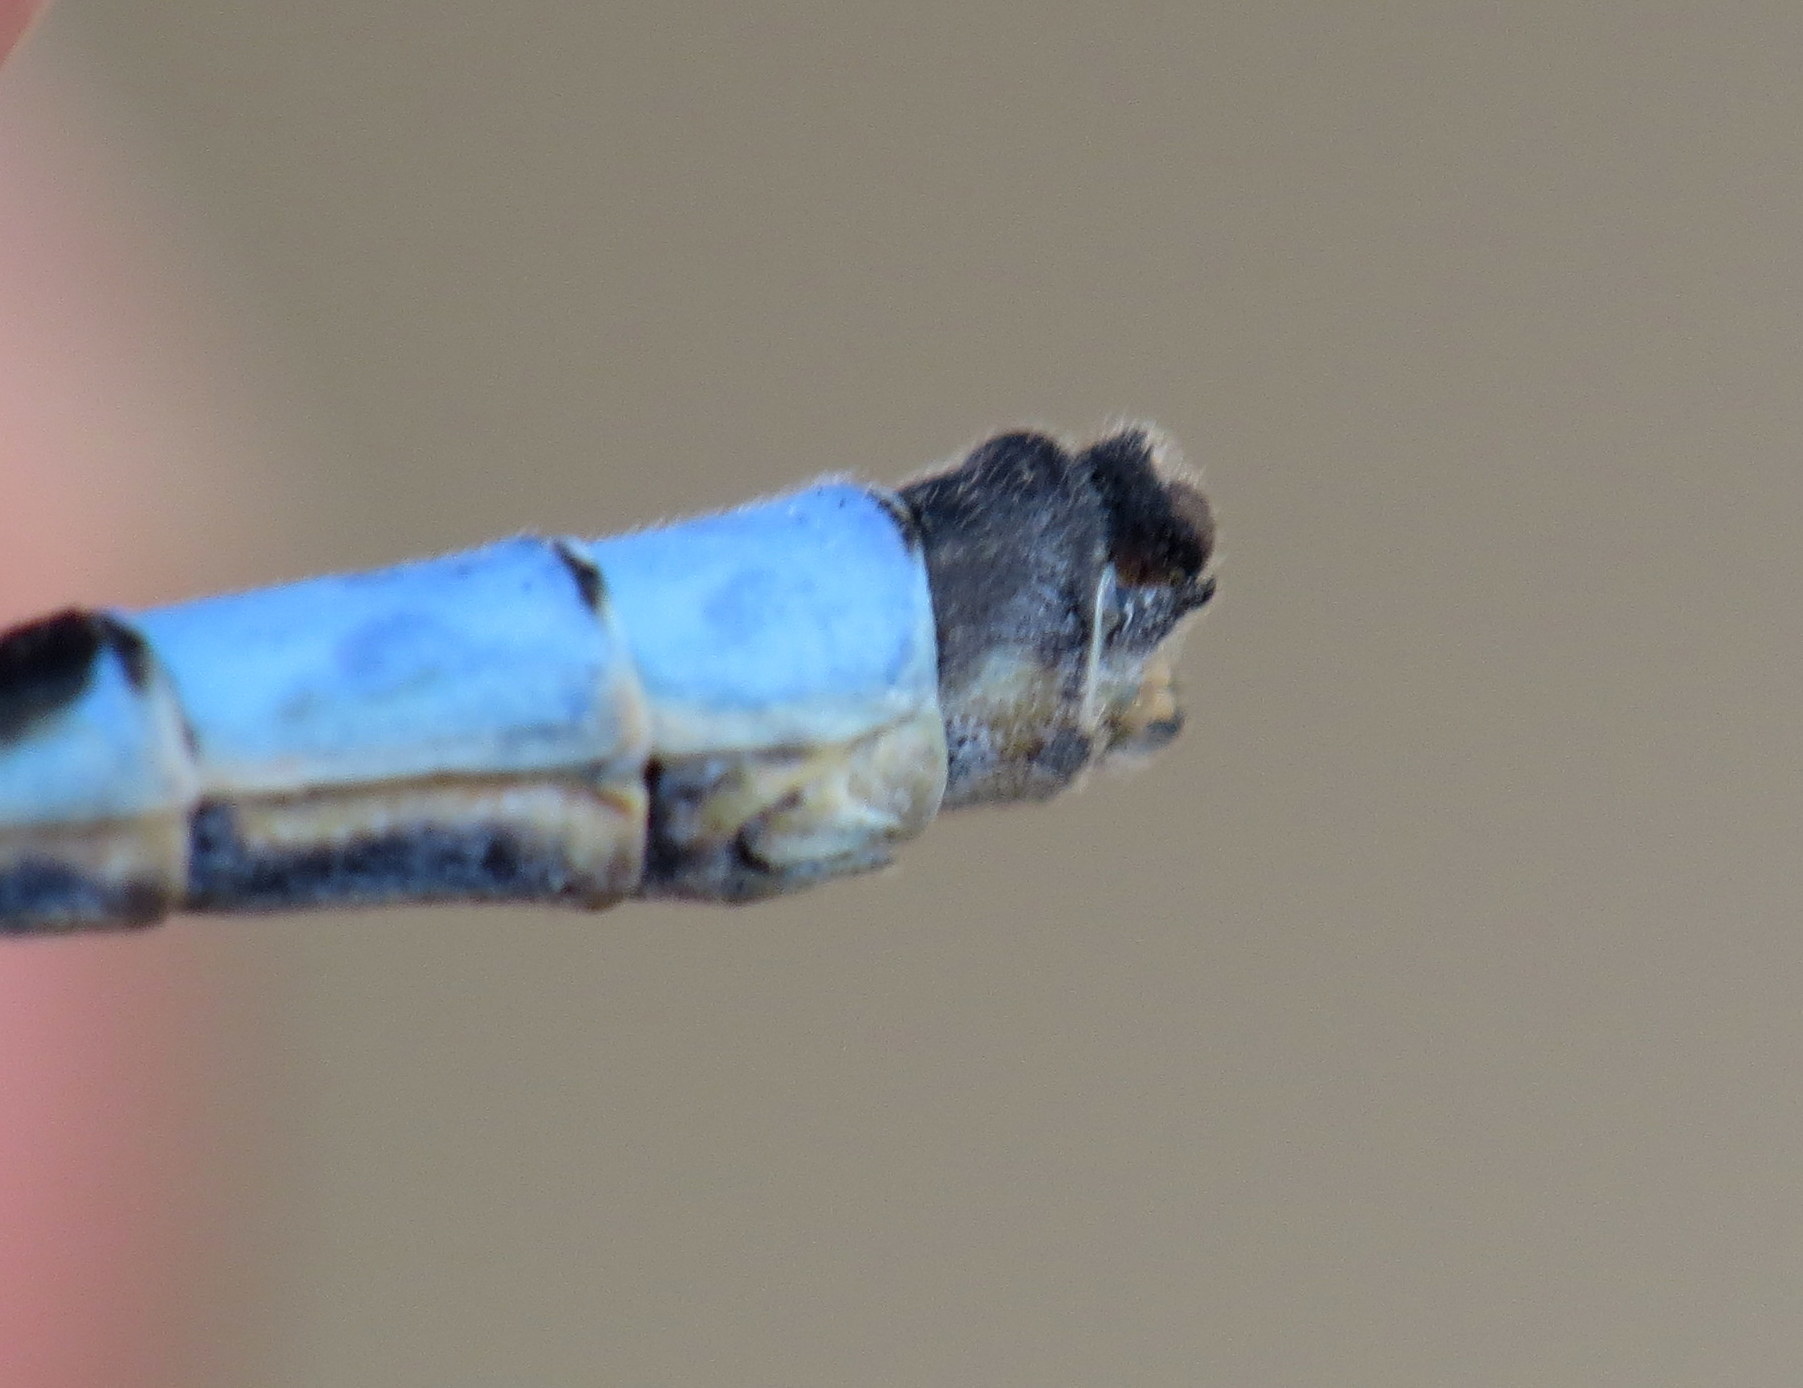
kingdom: Animalia
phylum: Arthropoda
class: Insecta
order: Odonata
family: Coenagrionidae
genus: Enallagma
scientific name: Enallagma minusculum
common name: Little bluet
